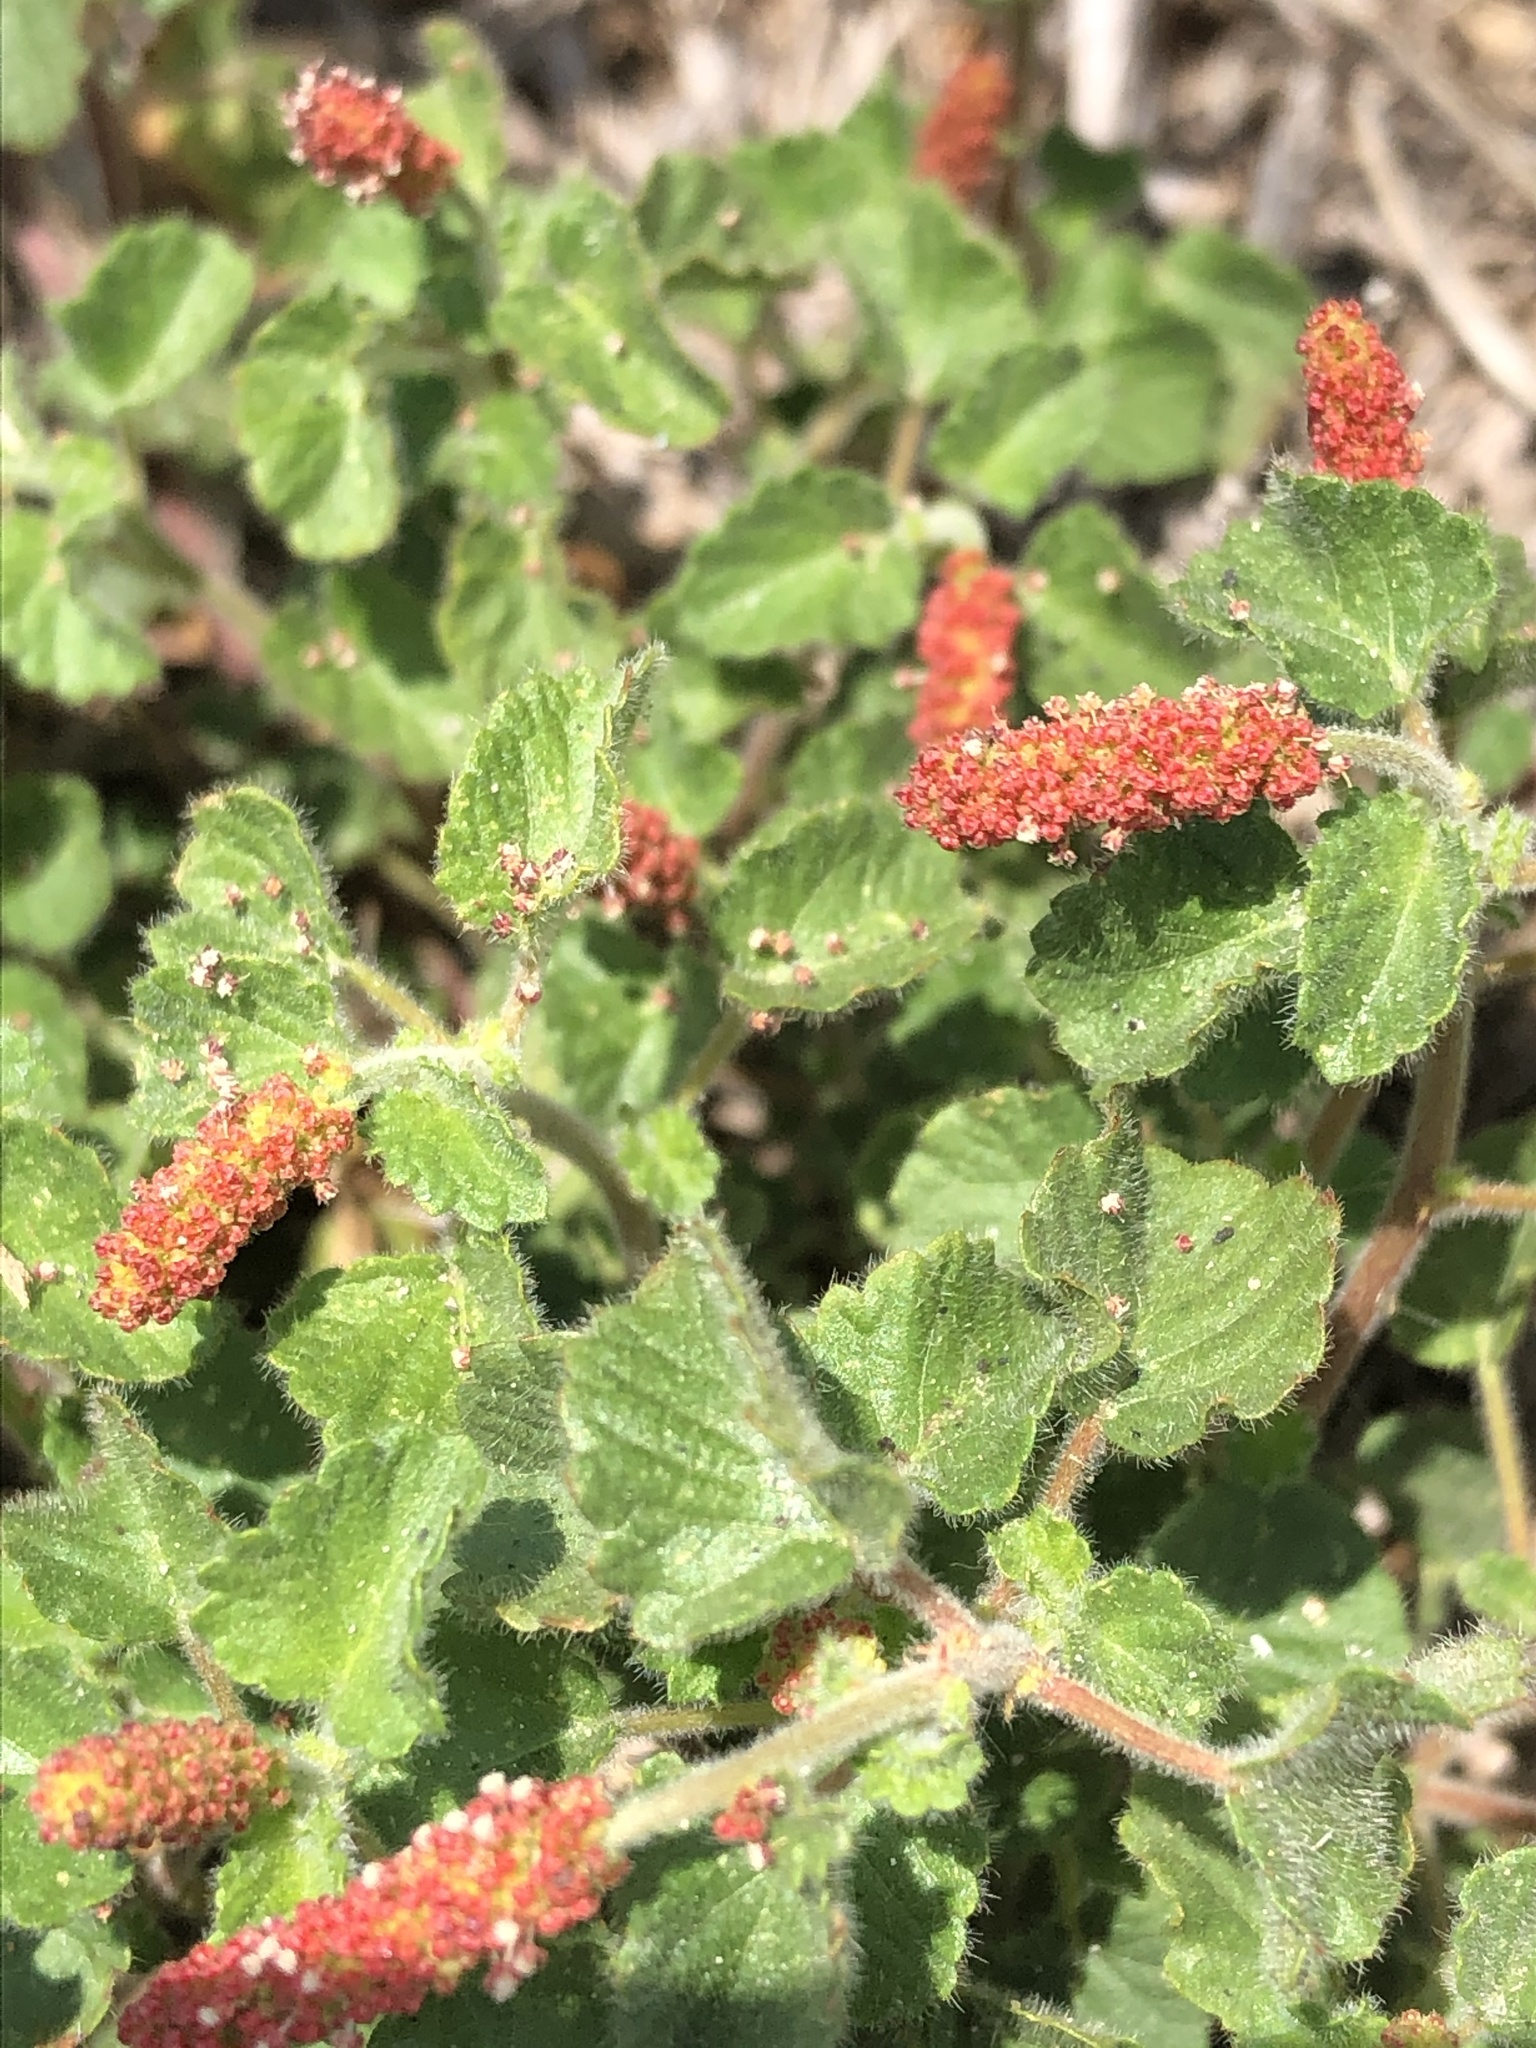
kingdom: Plantae
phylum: Tracheophyta
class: Magnoliopsida
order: Malpighiales
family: Euphorbiaceae
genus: Acalypha
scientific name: Acalypha monostachya
